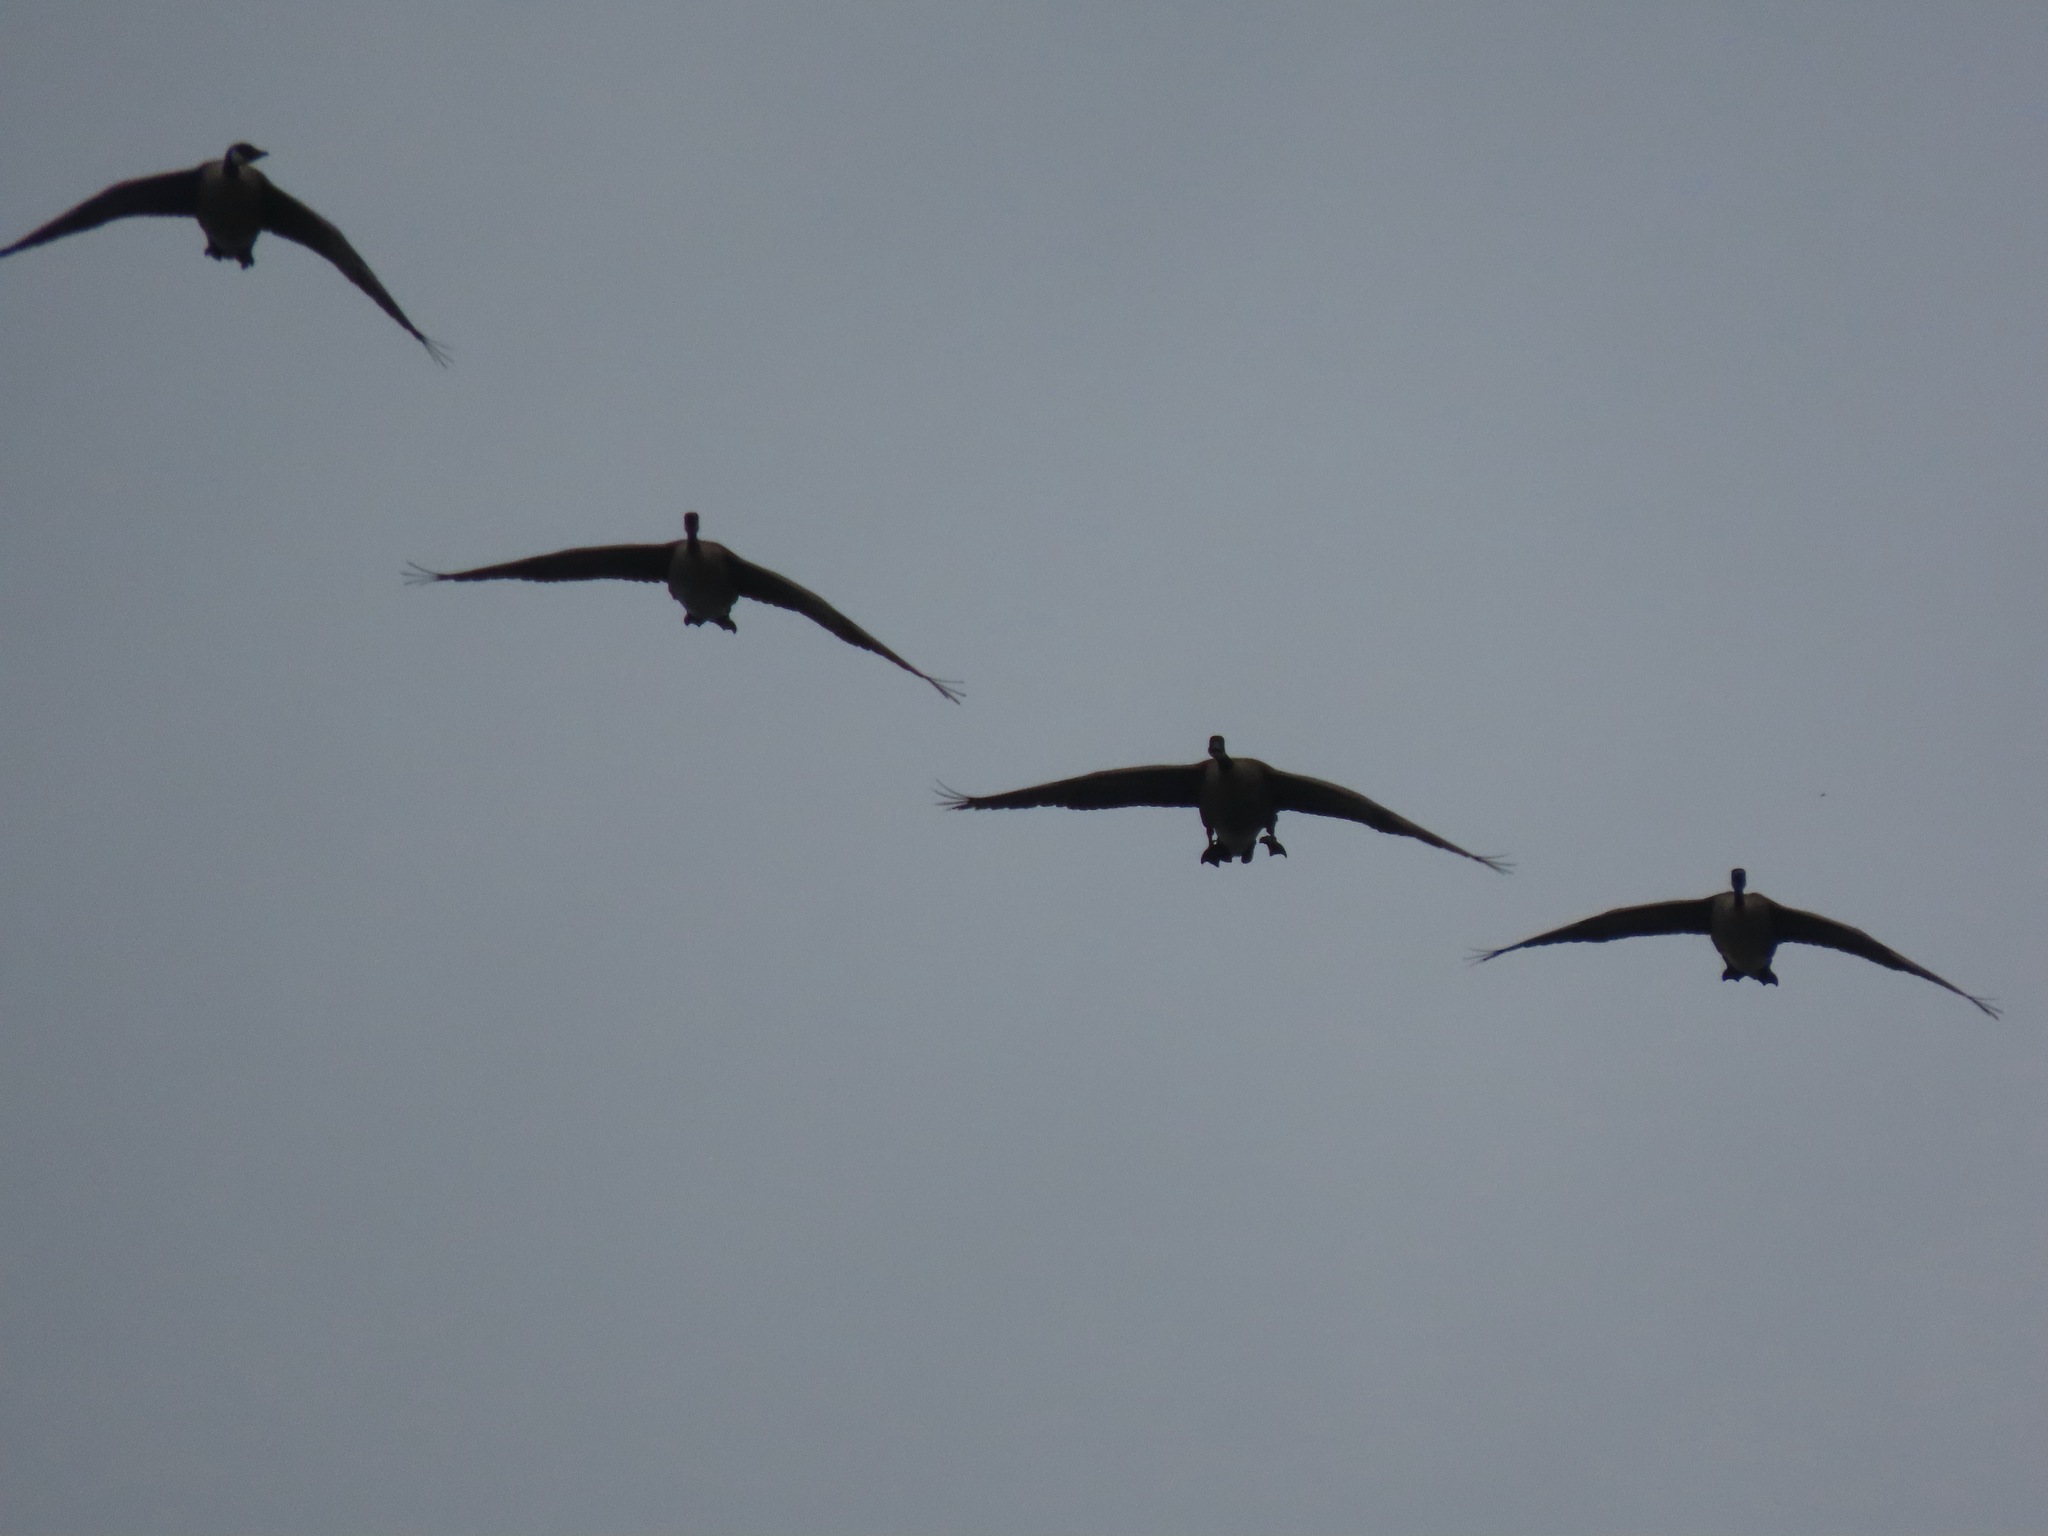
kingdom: Animalia
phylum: Chordata
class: Aves
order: Anseriformes
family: Anatidae
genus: Branta
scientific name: Branta canadensis
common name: Canada goose
